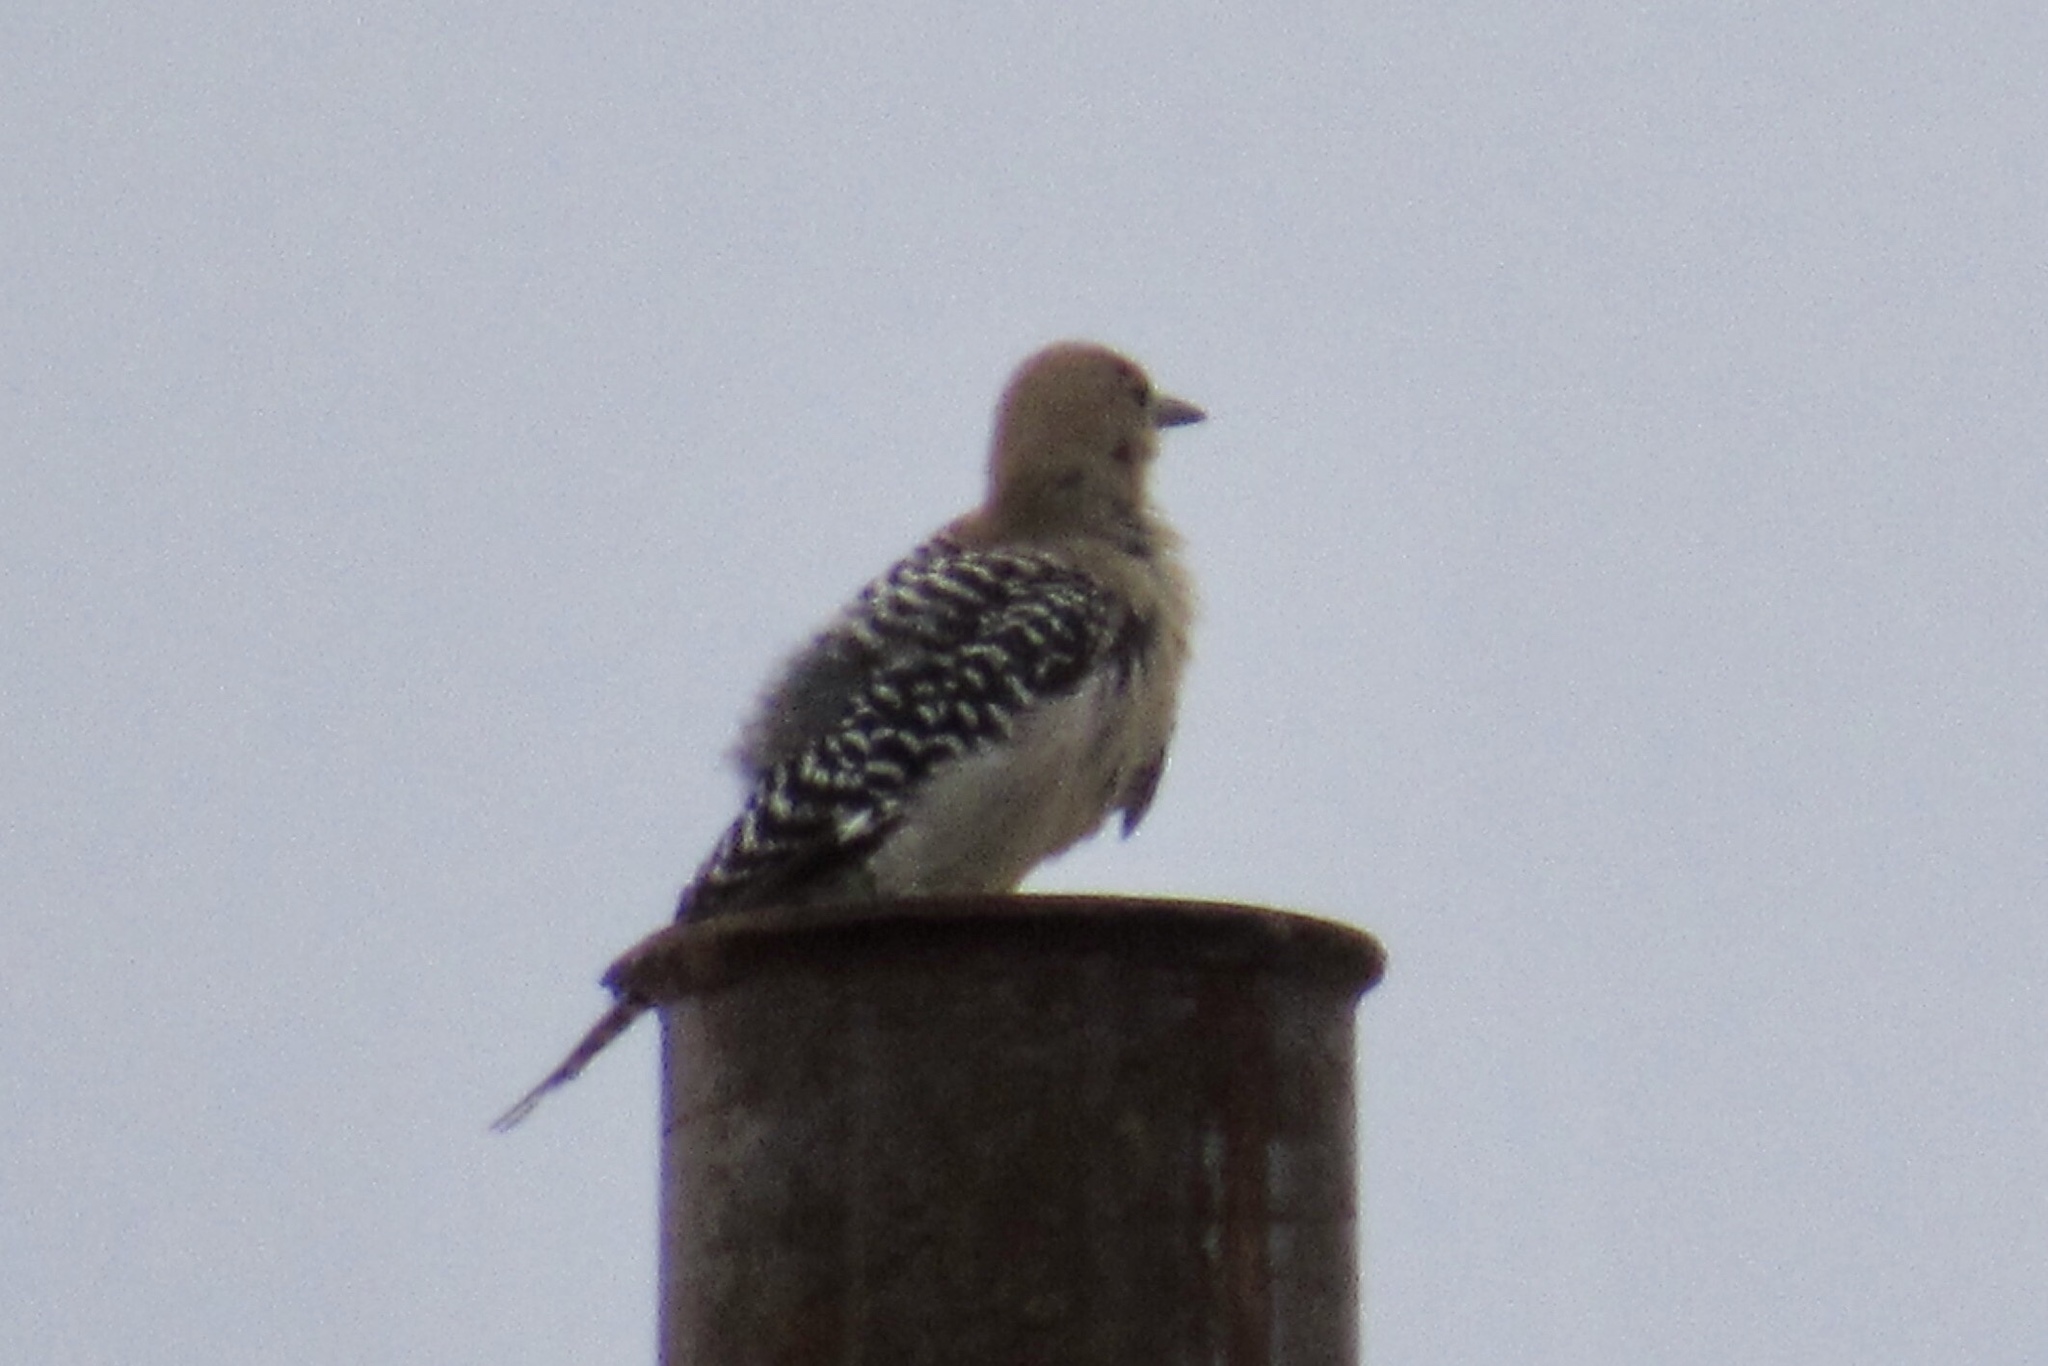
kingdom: Animalia
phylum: Chordata
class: Aves
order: Piciformes
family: Picidae
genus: Melanerpes
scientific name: Melanerpes uropygialis
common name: Gila woodpecker
